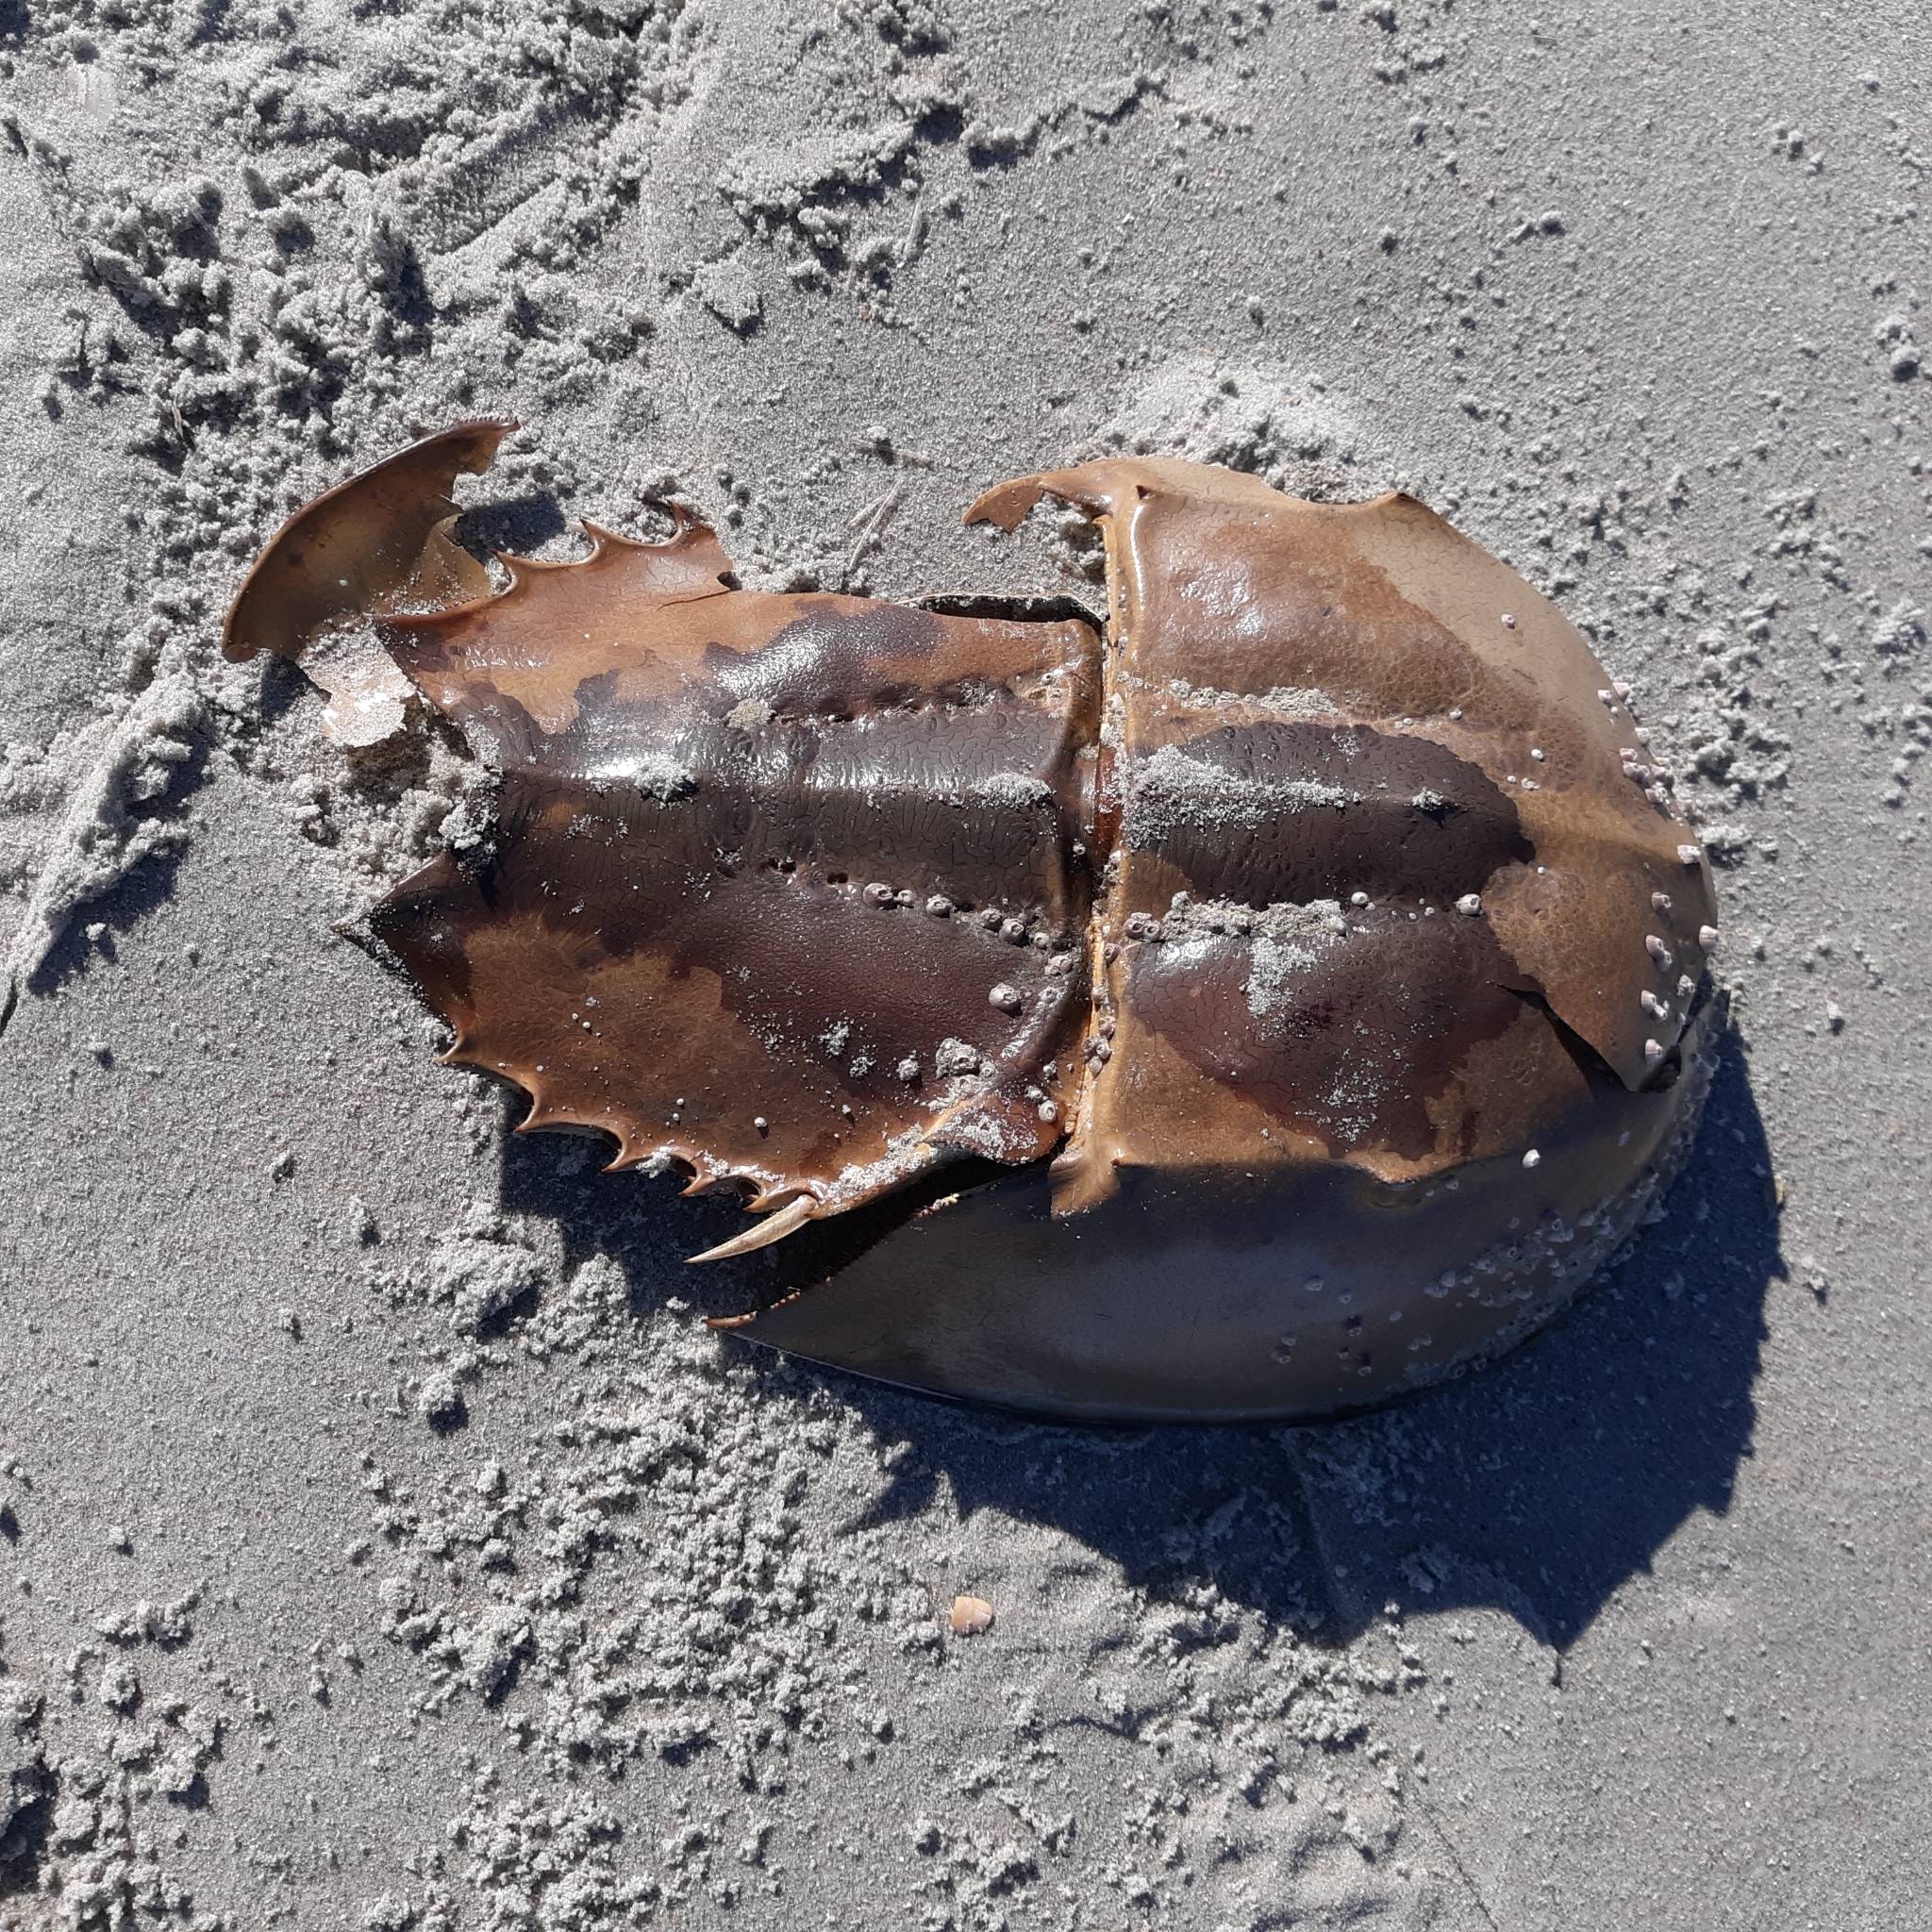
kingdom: Animalia
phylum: Arthropoda
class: Merostomata
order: Xiphosurida
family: Limulidae
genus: Limulus
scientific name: Limulus polyphemus
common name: Horseshoe crab
